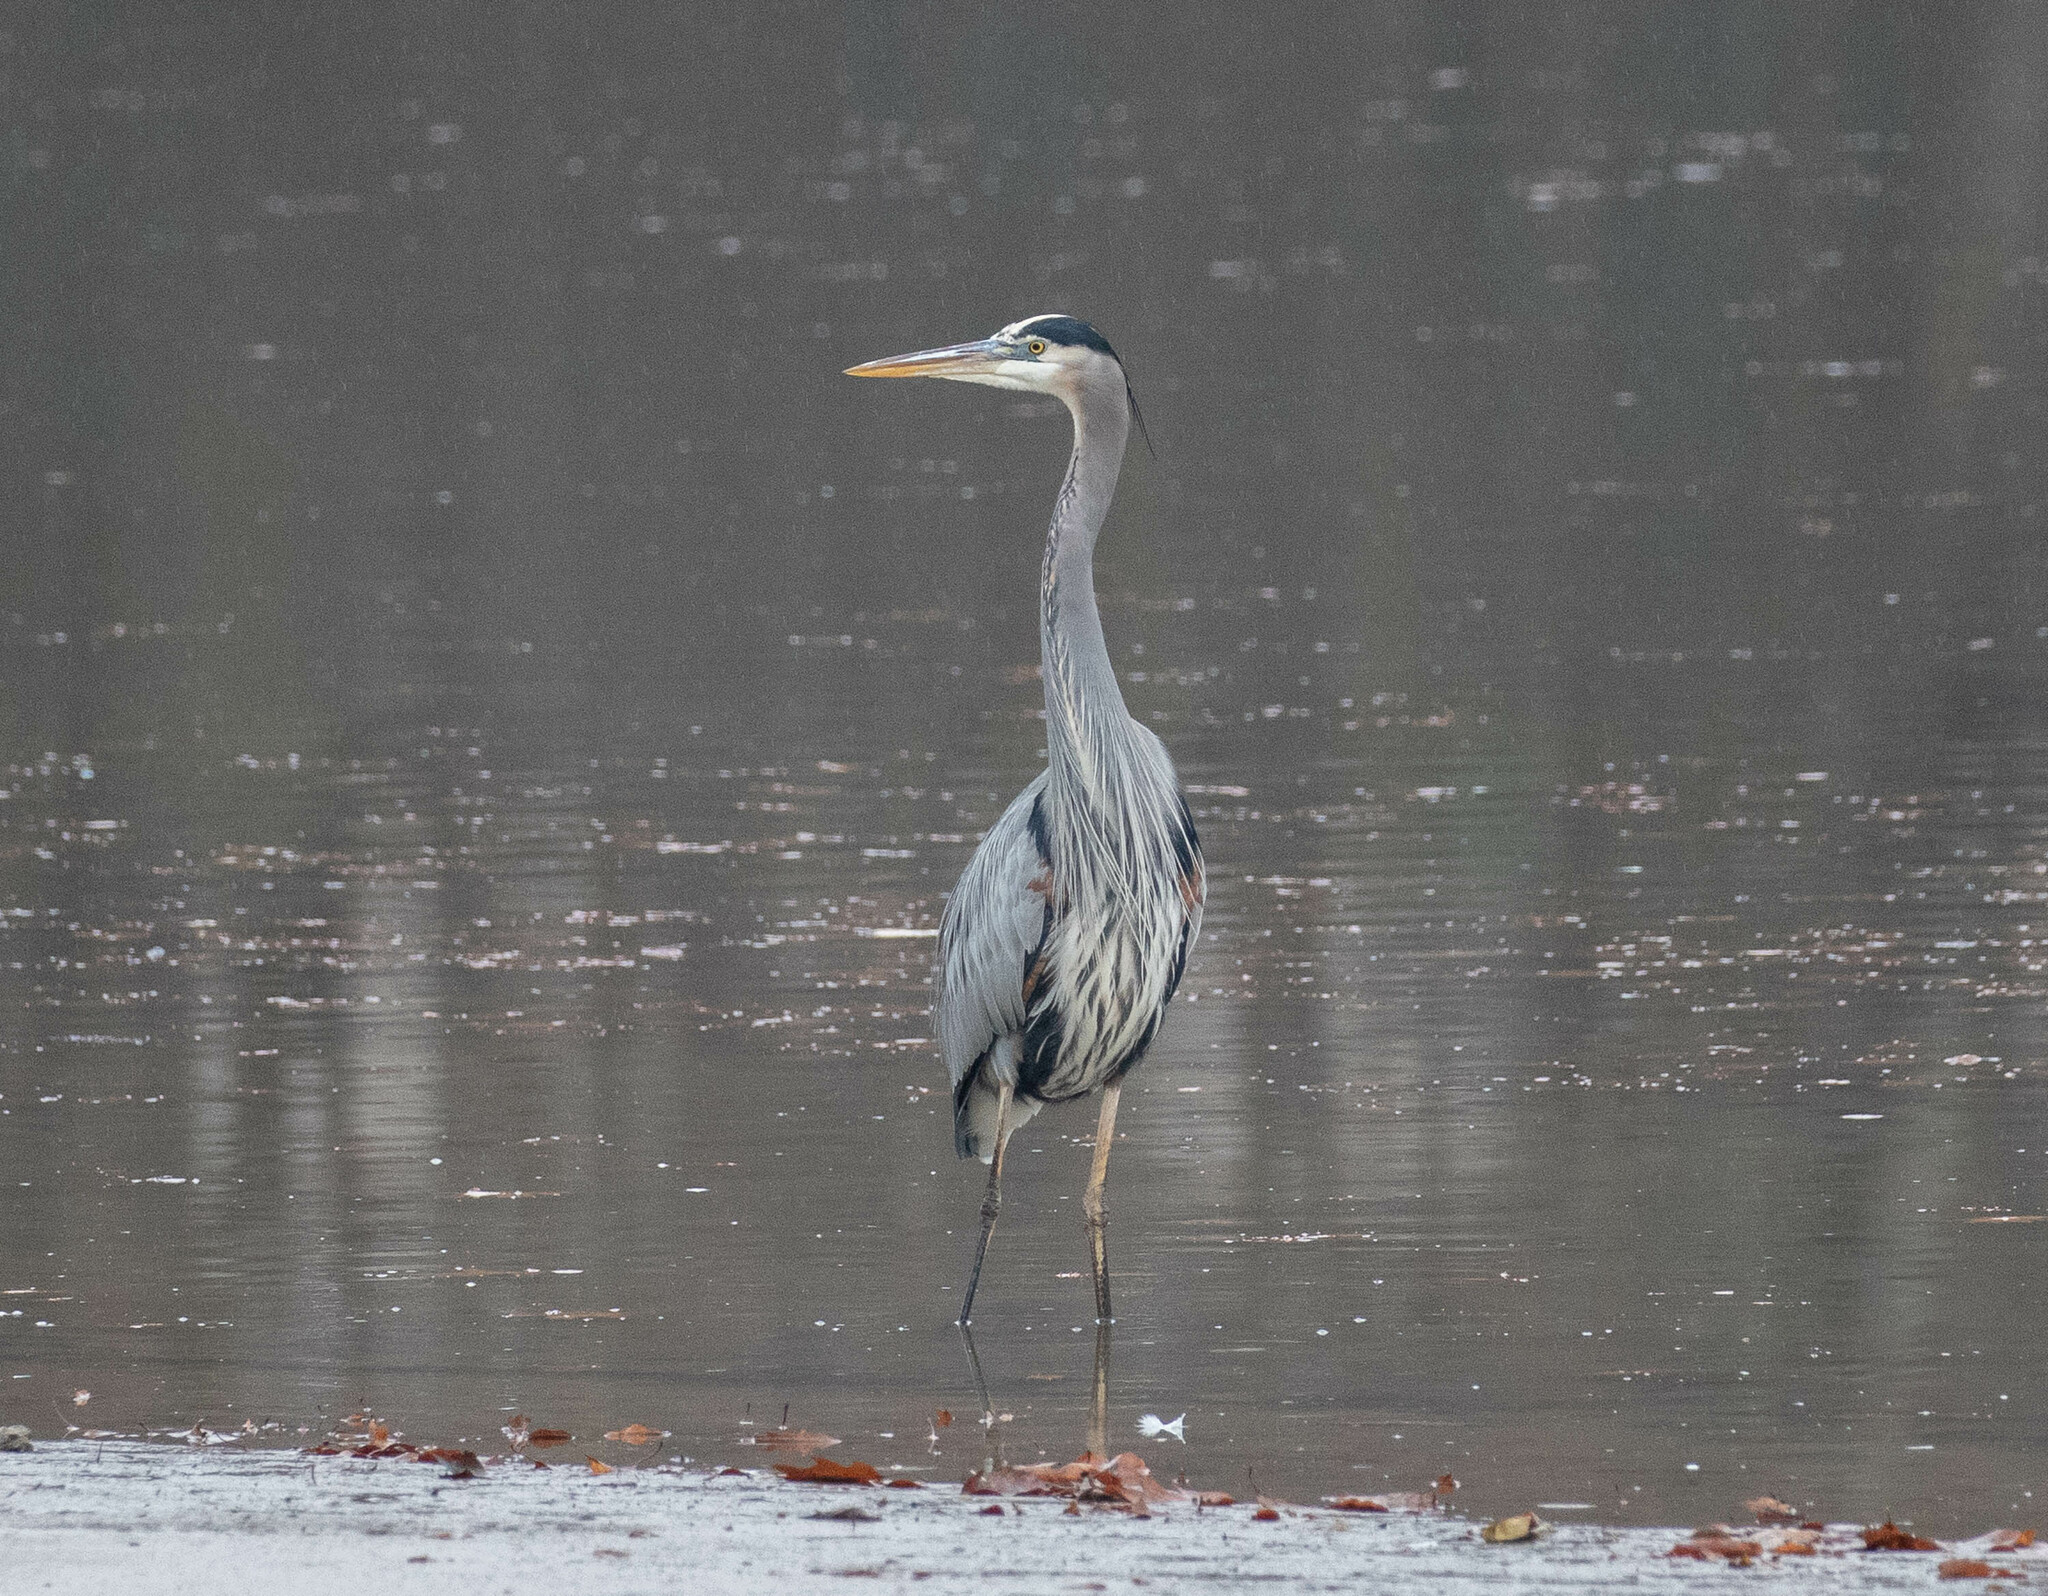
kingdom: Animalia
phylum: Chordata
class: Aves
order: Pelecaniformes
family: Ardeidae
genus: Ardea
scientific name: Ardea herodias
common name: Great blue heron
